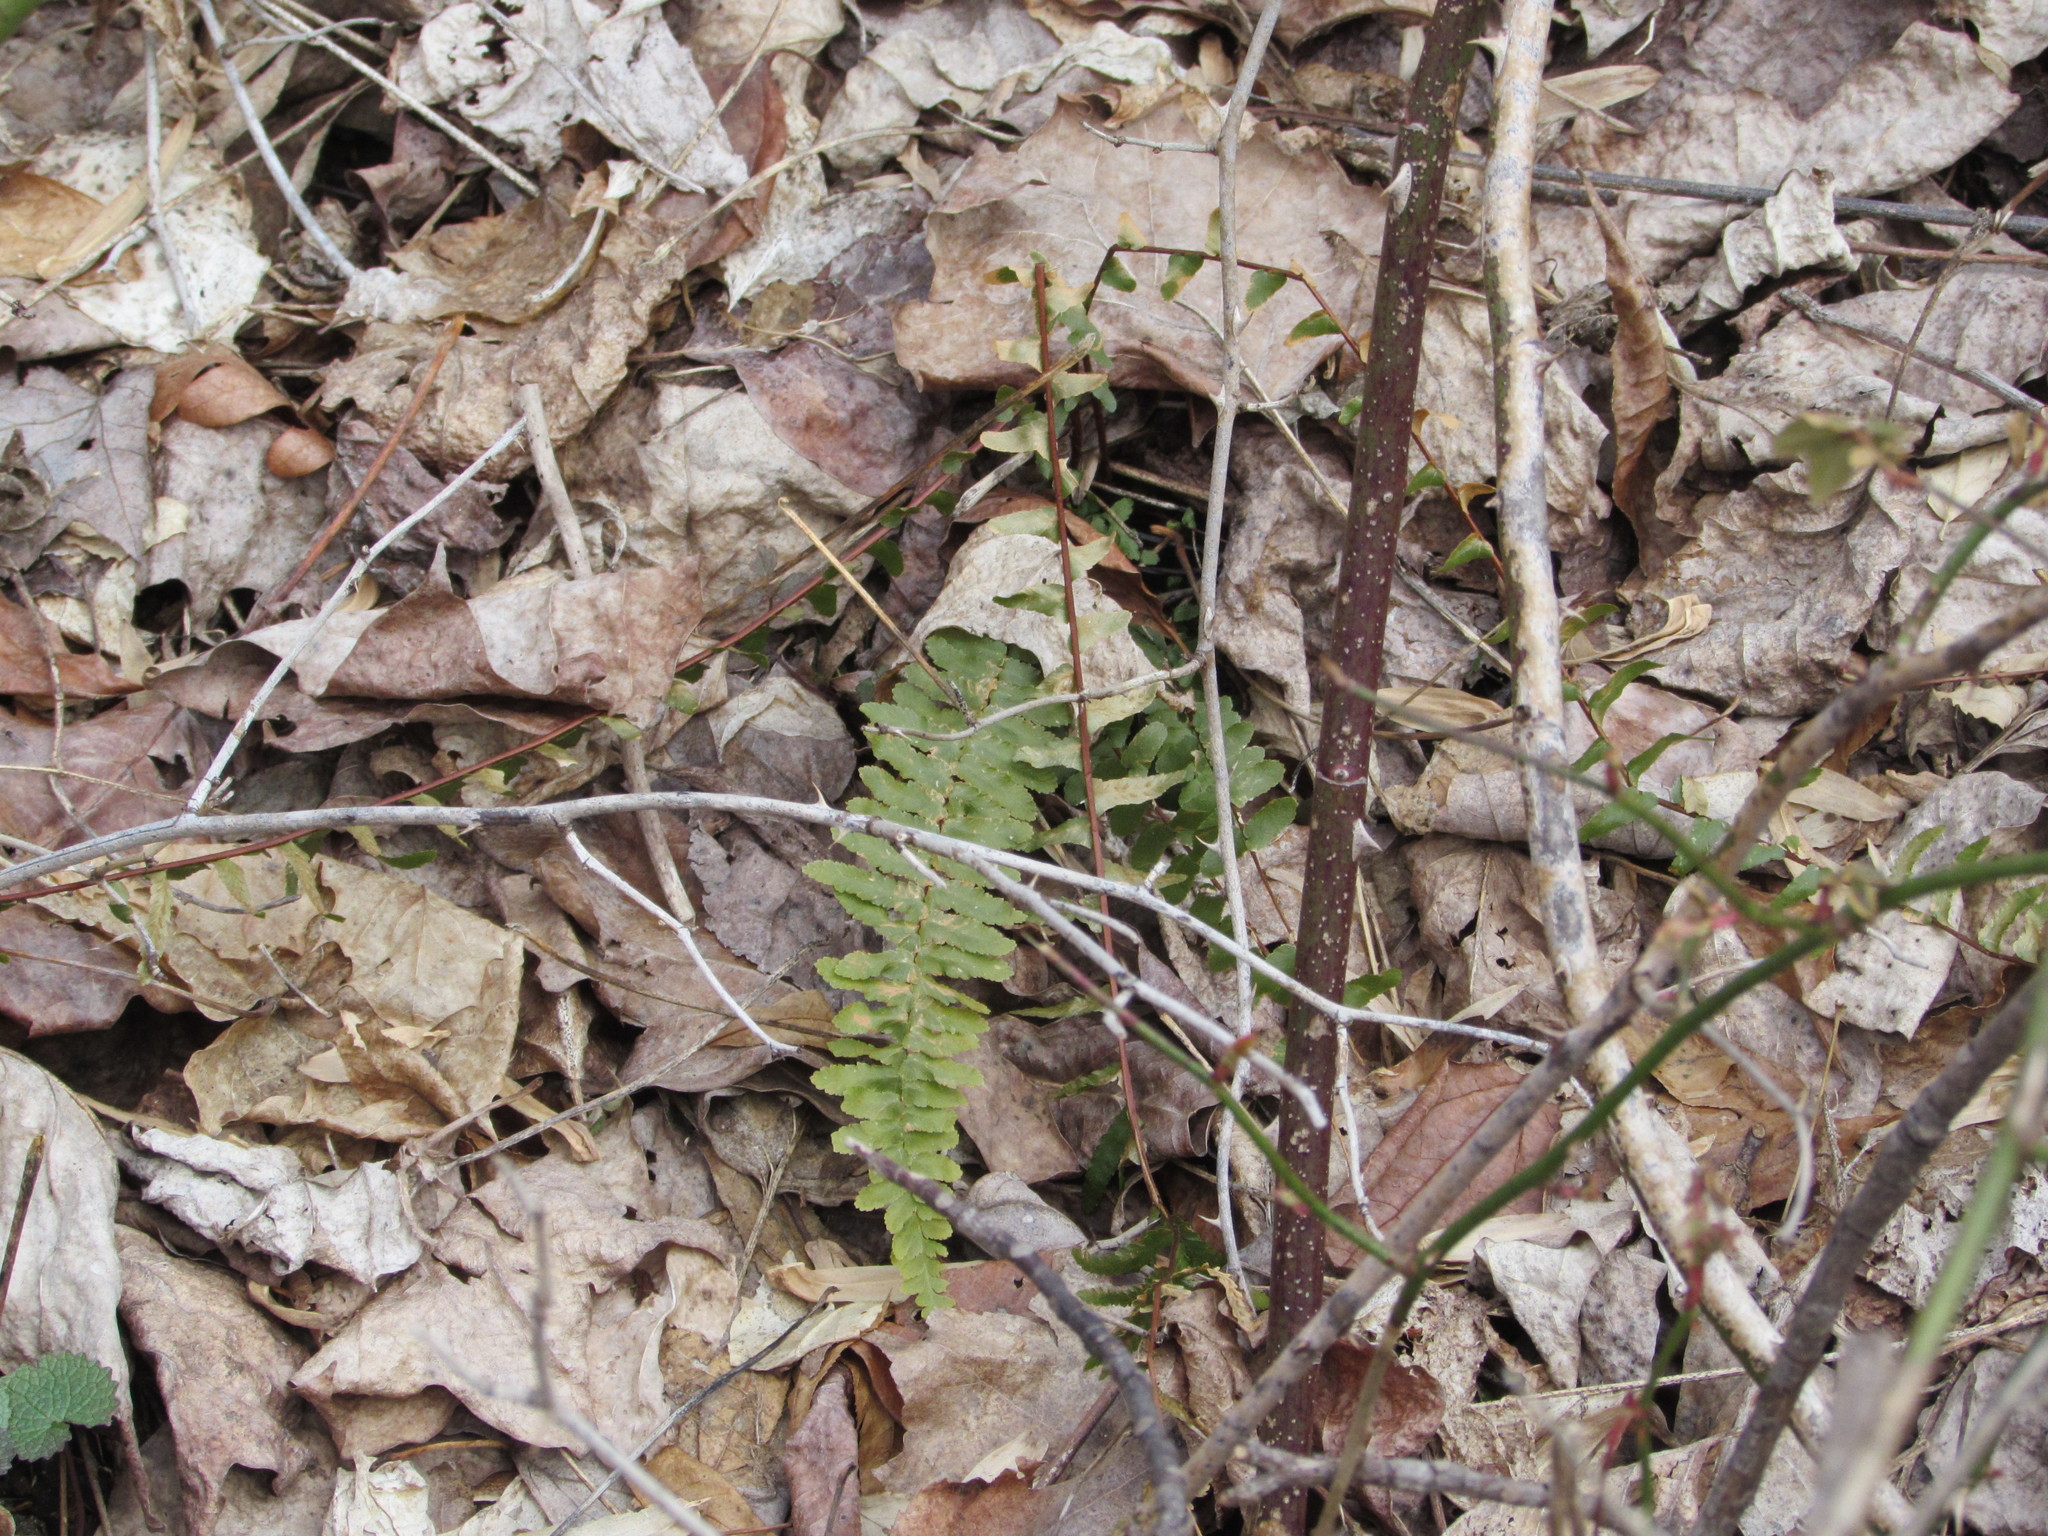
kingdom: Plantae
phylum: Tracheophyta
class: Polypodiopsida
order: Polypodiales
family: Aspleniaceae
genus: Asplenium
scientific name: Asplenium platyneuron
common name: Ebony spleenwort
